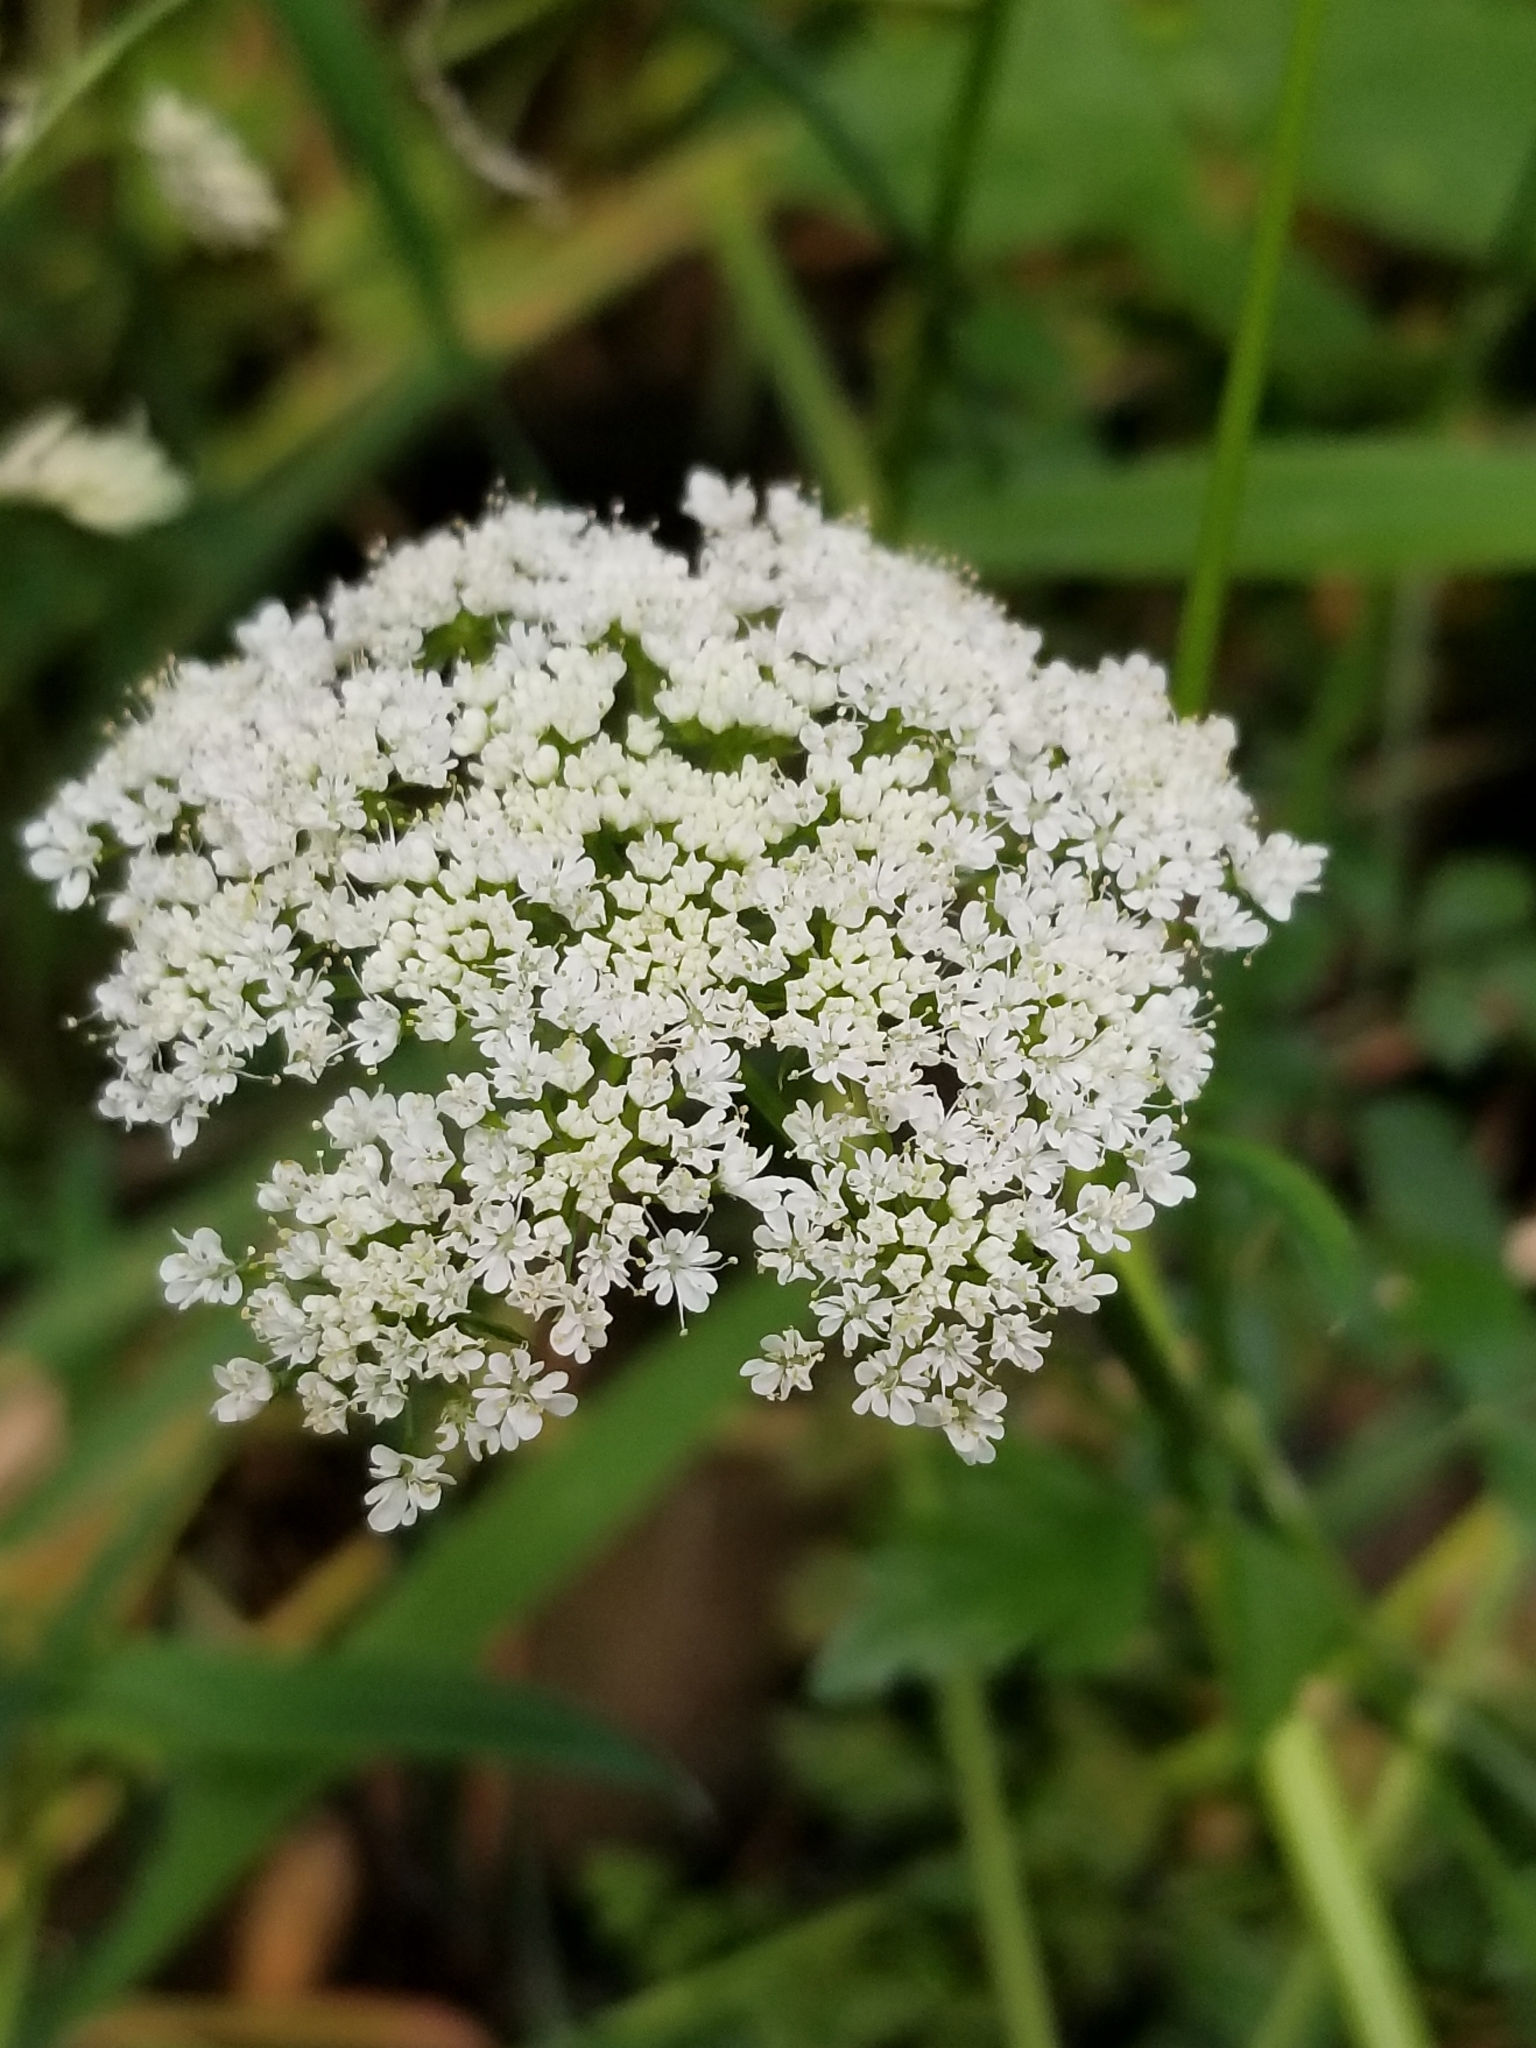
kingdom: Plantae
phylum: Tracheophyta
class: Magnoliopsida
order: Apiales
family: Apiaceae
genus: Oenanthe
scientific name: Oenanthe sarmentosa
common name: American water-parsley
